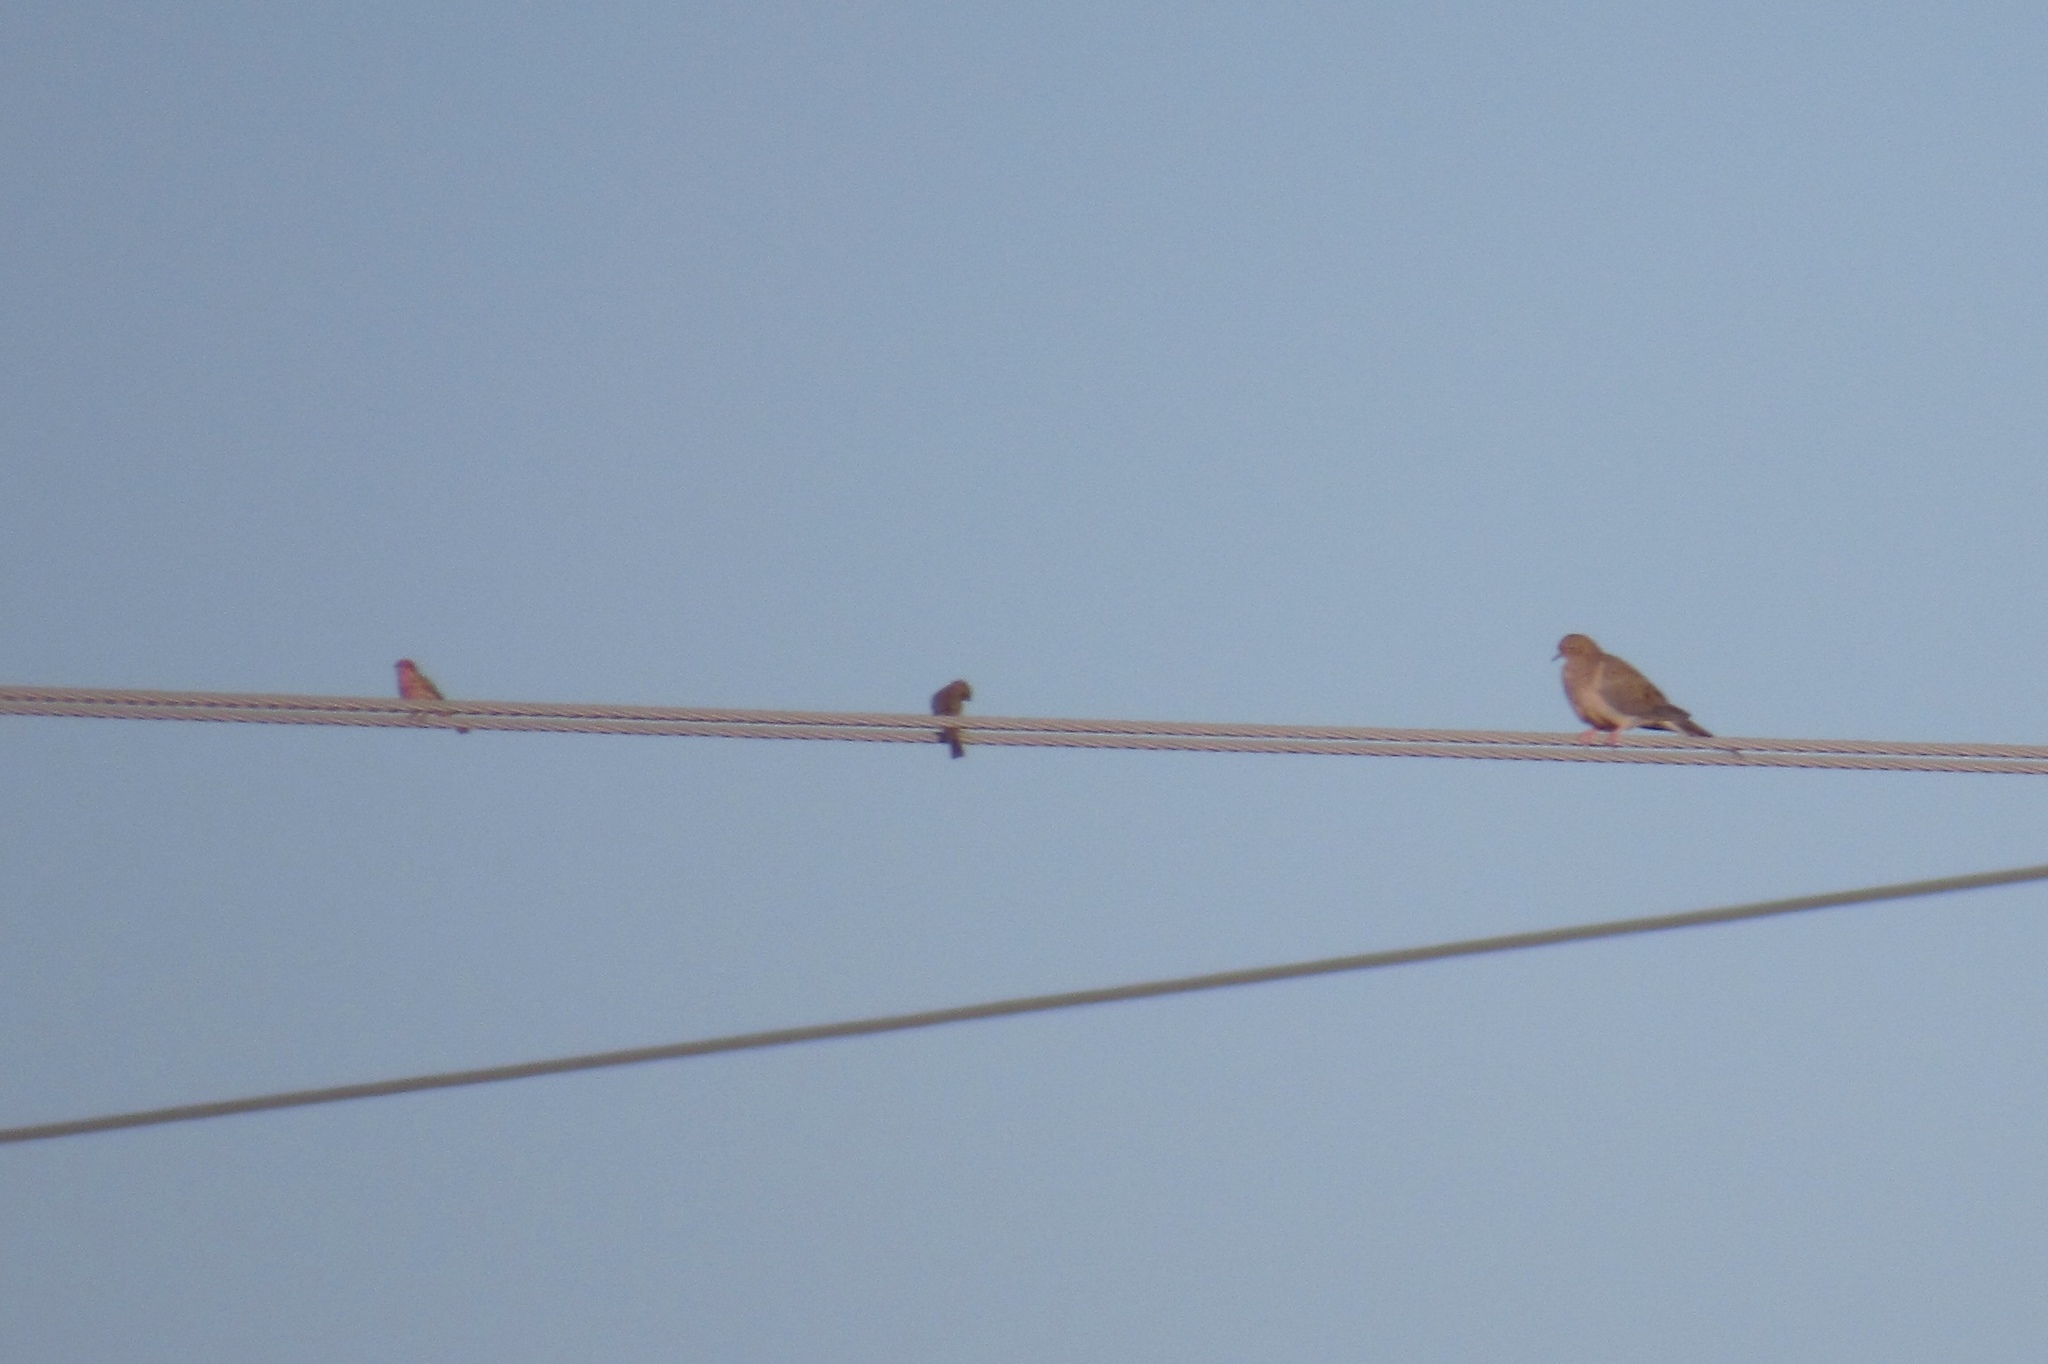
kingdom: Animalia
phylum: Chordata
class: Aves
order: Columbiformes
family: Columbidae
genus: Zenaida
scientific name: Zenaida macroura
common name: Mourning dove
